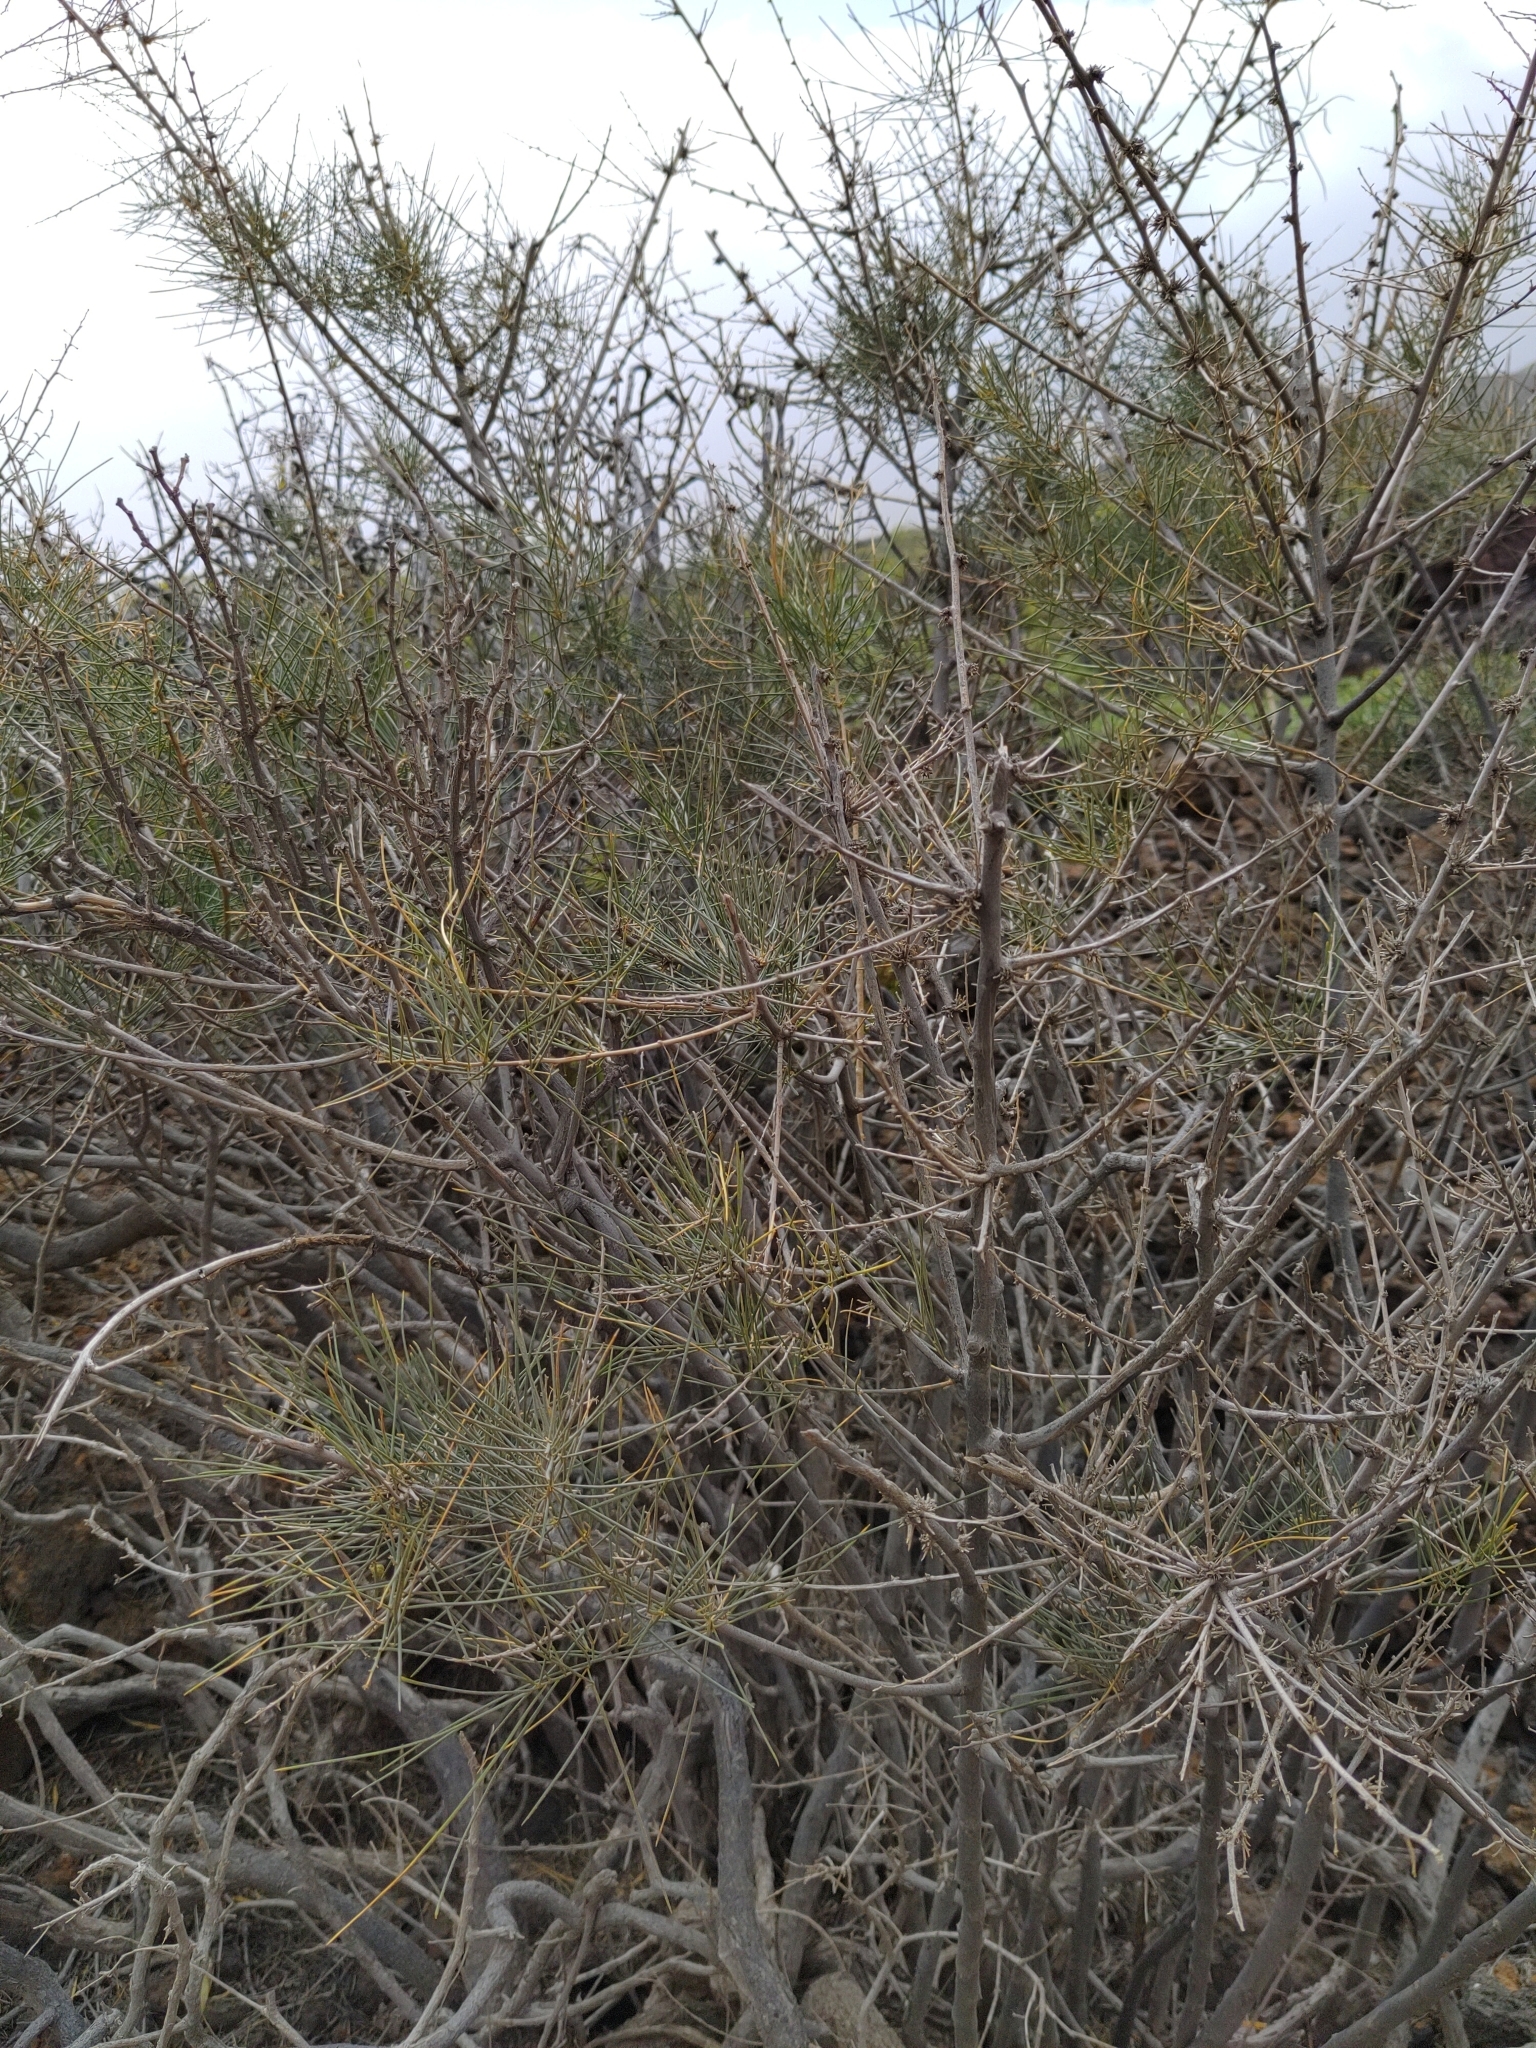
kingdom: Plantae
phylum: Tracheophyta
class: Liliopsida
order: Asparagales
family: Asparagaceae
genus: Asparagus
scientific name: Asparagus arborescens
